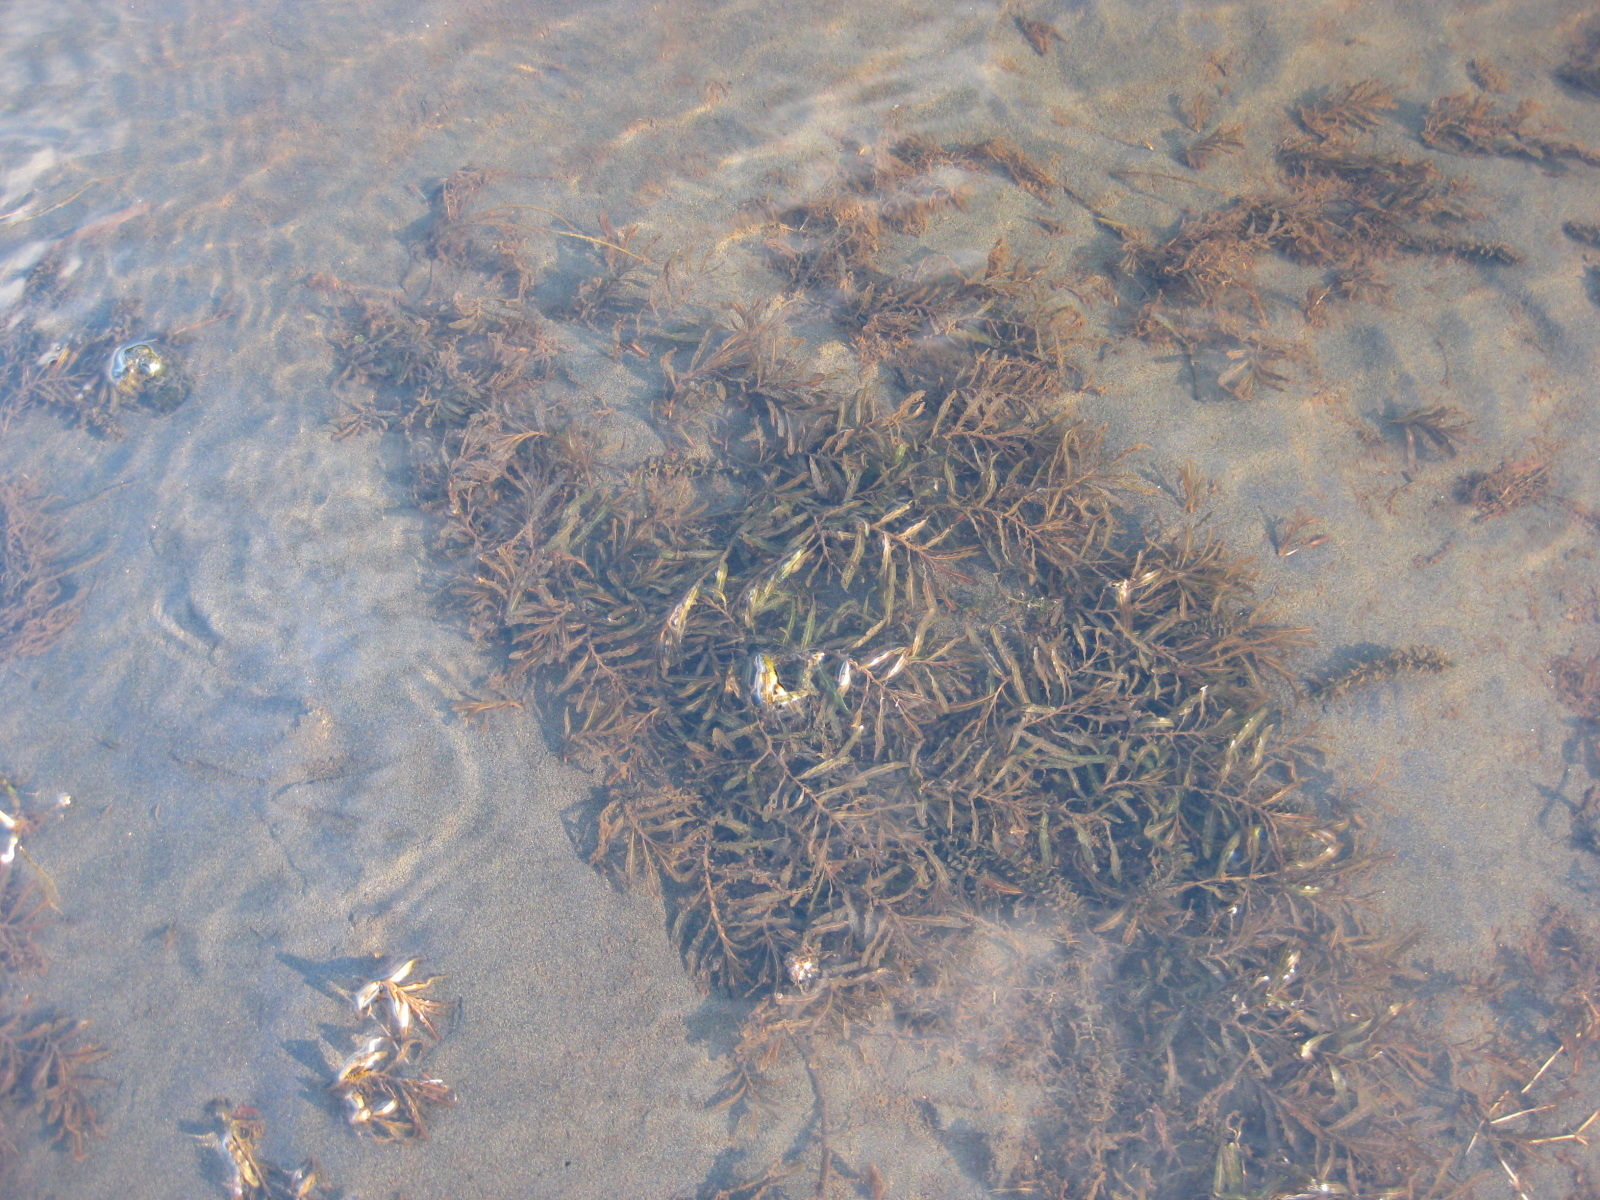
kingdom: Plantae
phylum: Tracheophyta
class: Liliopsida
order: Alismatales
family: Potamogetonaceae
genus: Potamogeton
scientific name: Potamogeton crispus
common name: Curled pondweed
